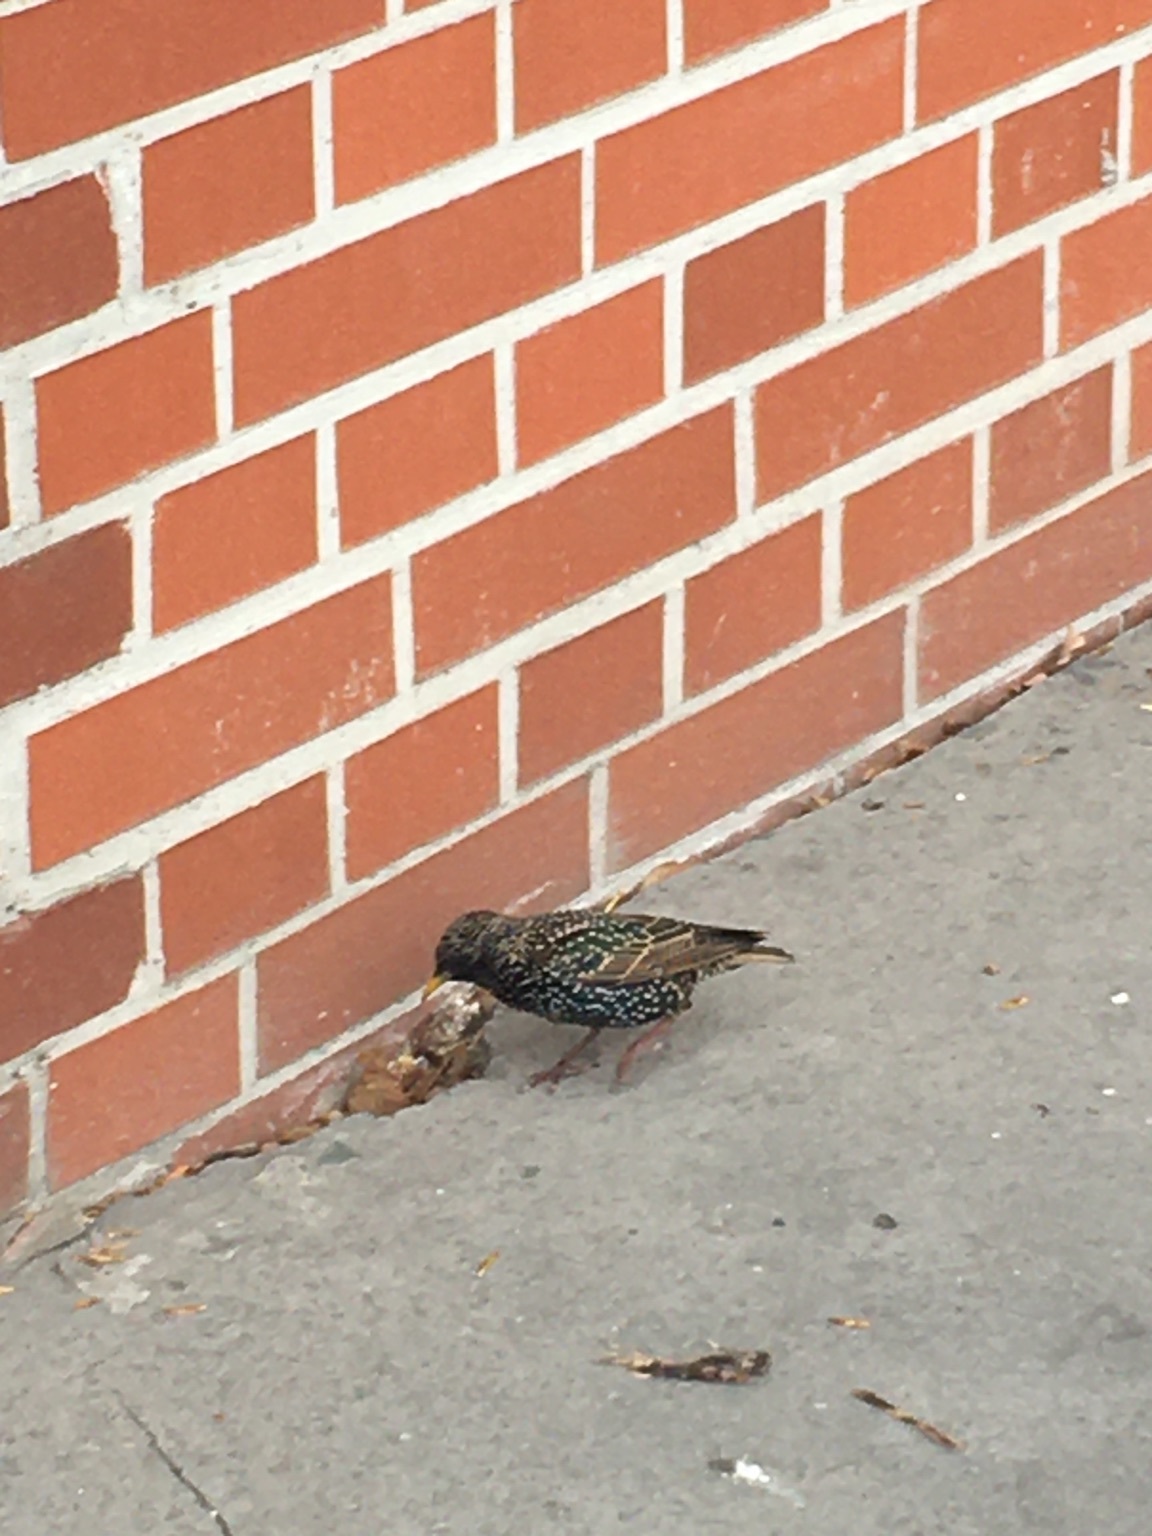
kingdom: Animalia
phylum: Chordata
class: Aves
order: Passeriformes
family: Sturnidae
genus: Sturnus
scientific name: Sturnus vulgaris
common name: Common starling
